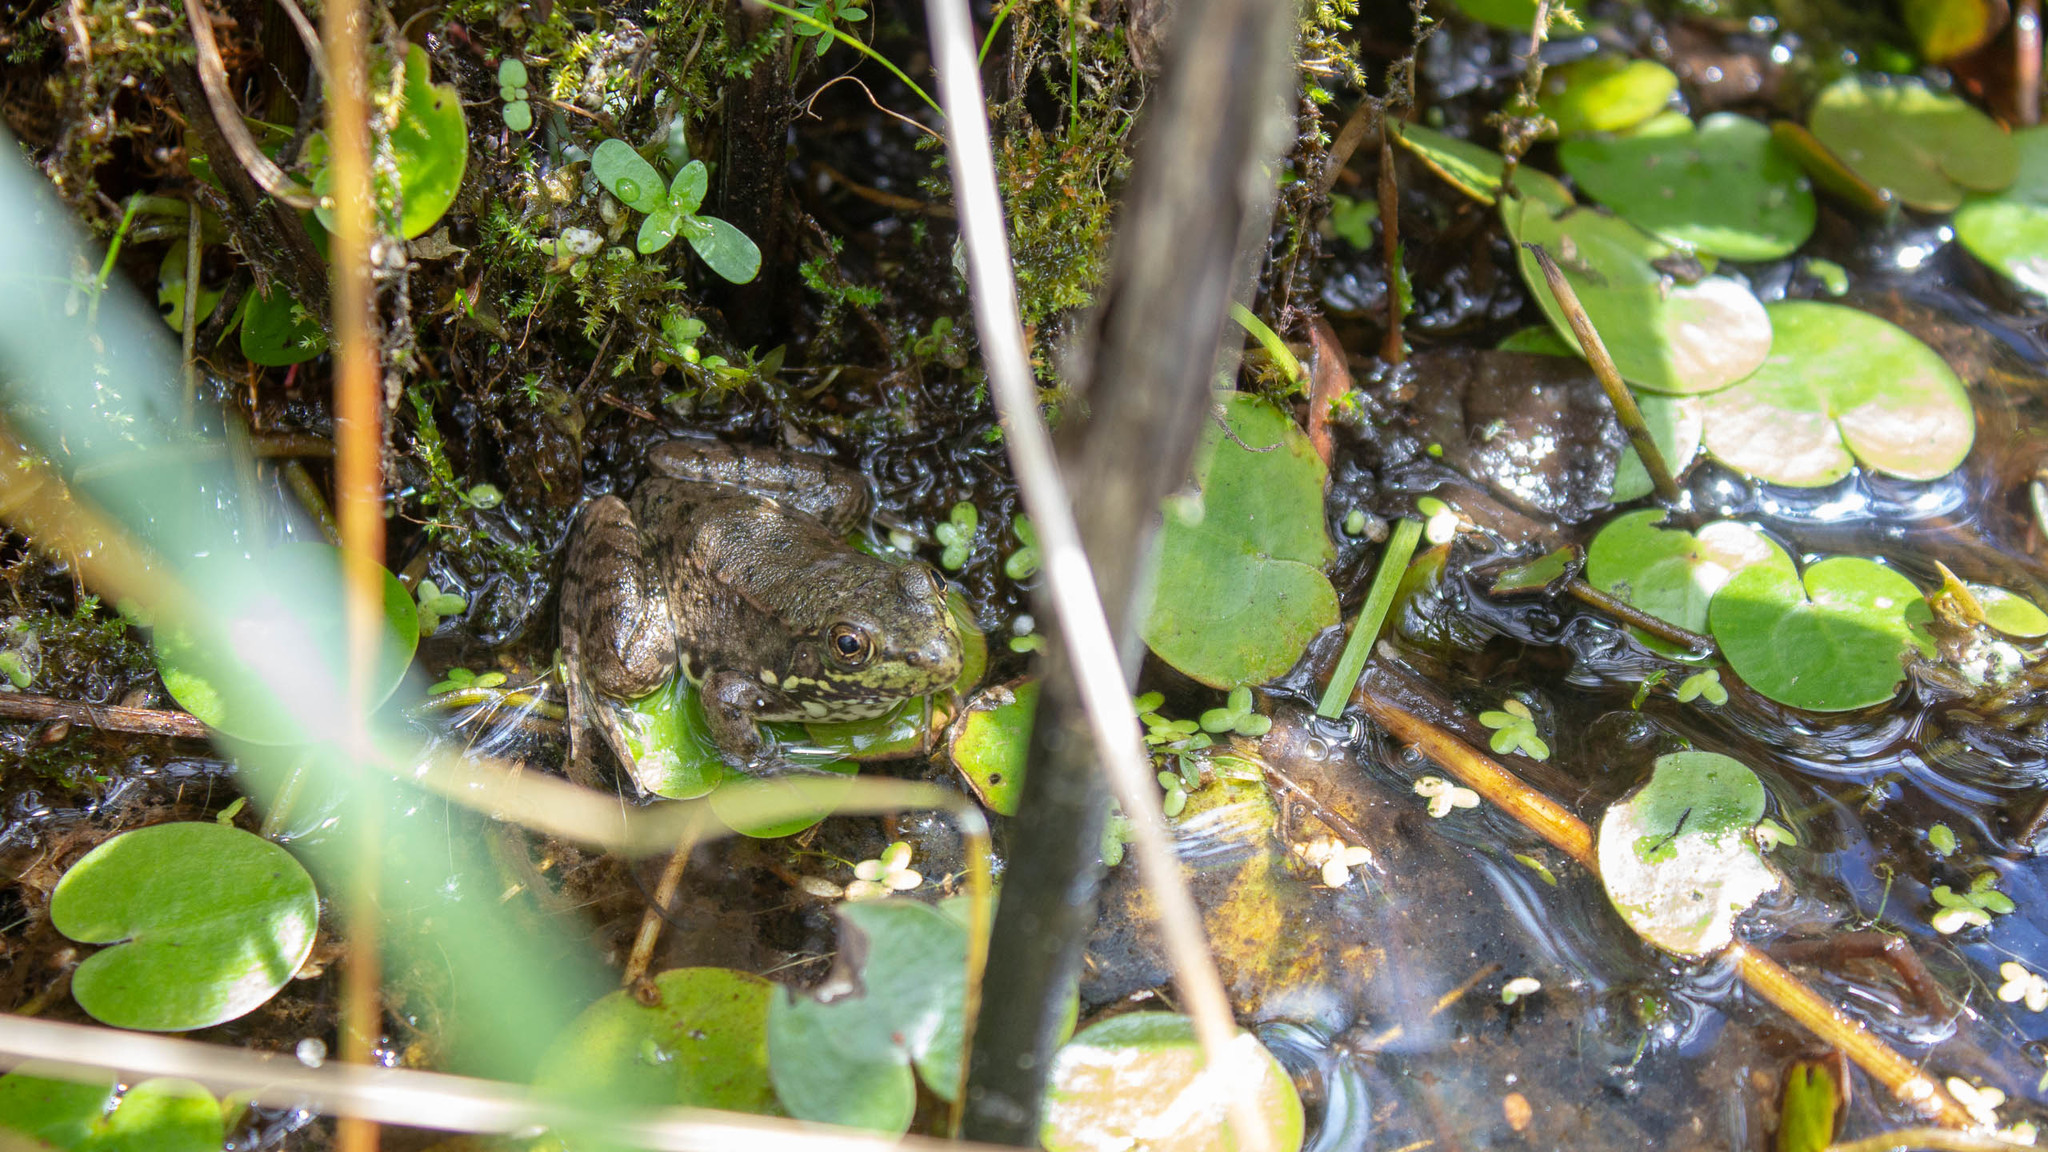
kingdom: Animalia
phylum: Chordata
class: Amphibia
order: Anura
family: Ranidae
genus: Lithobates
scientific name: Lithobates clamitans
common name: Green frog
